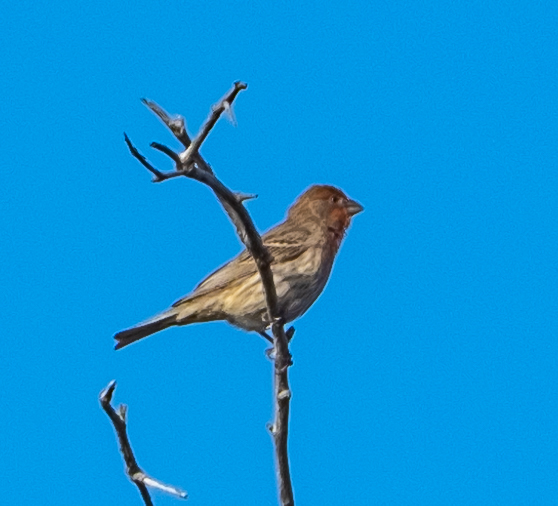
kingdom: Animalia
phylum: Chordata
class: Aves
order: Passeriformes
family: Fringillidae
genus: Haemorhous
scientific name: Haemorhous mexicanus
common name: House finch
